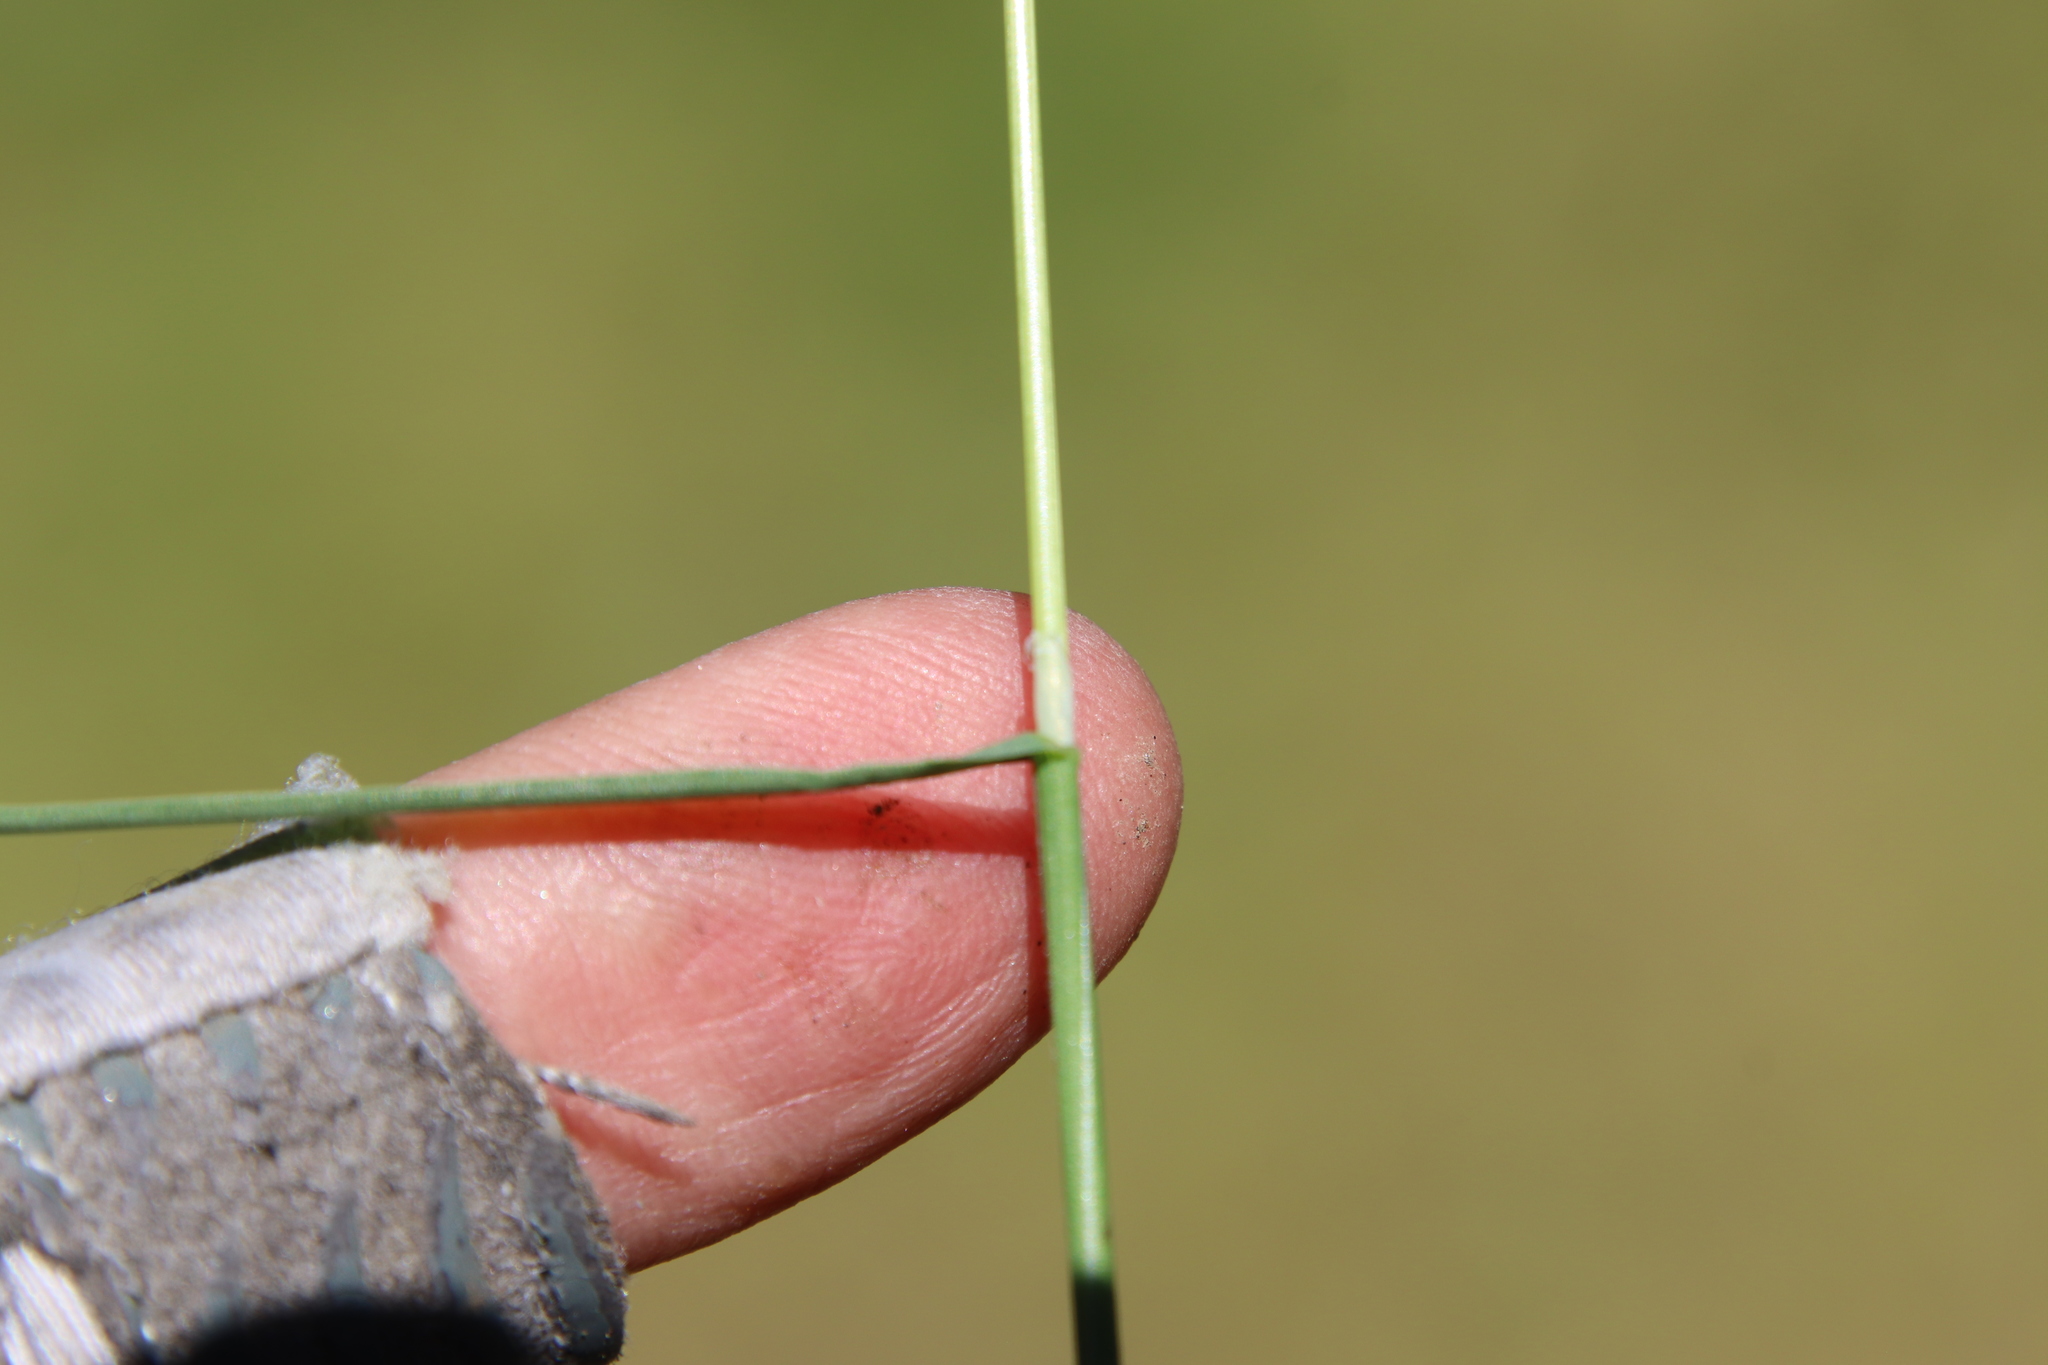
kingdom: Plantae
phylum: Tracheophyta
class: Liliopsida
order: Poales
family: Poaceae
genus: Poa
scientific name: Poa bulbosa
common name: Bulbous bluegrass
